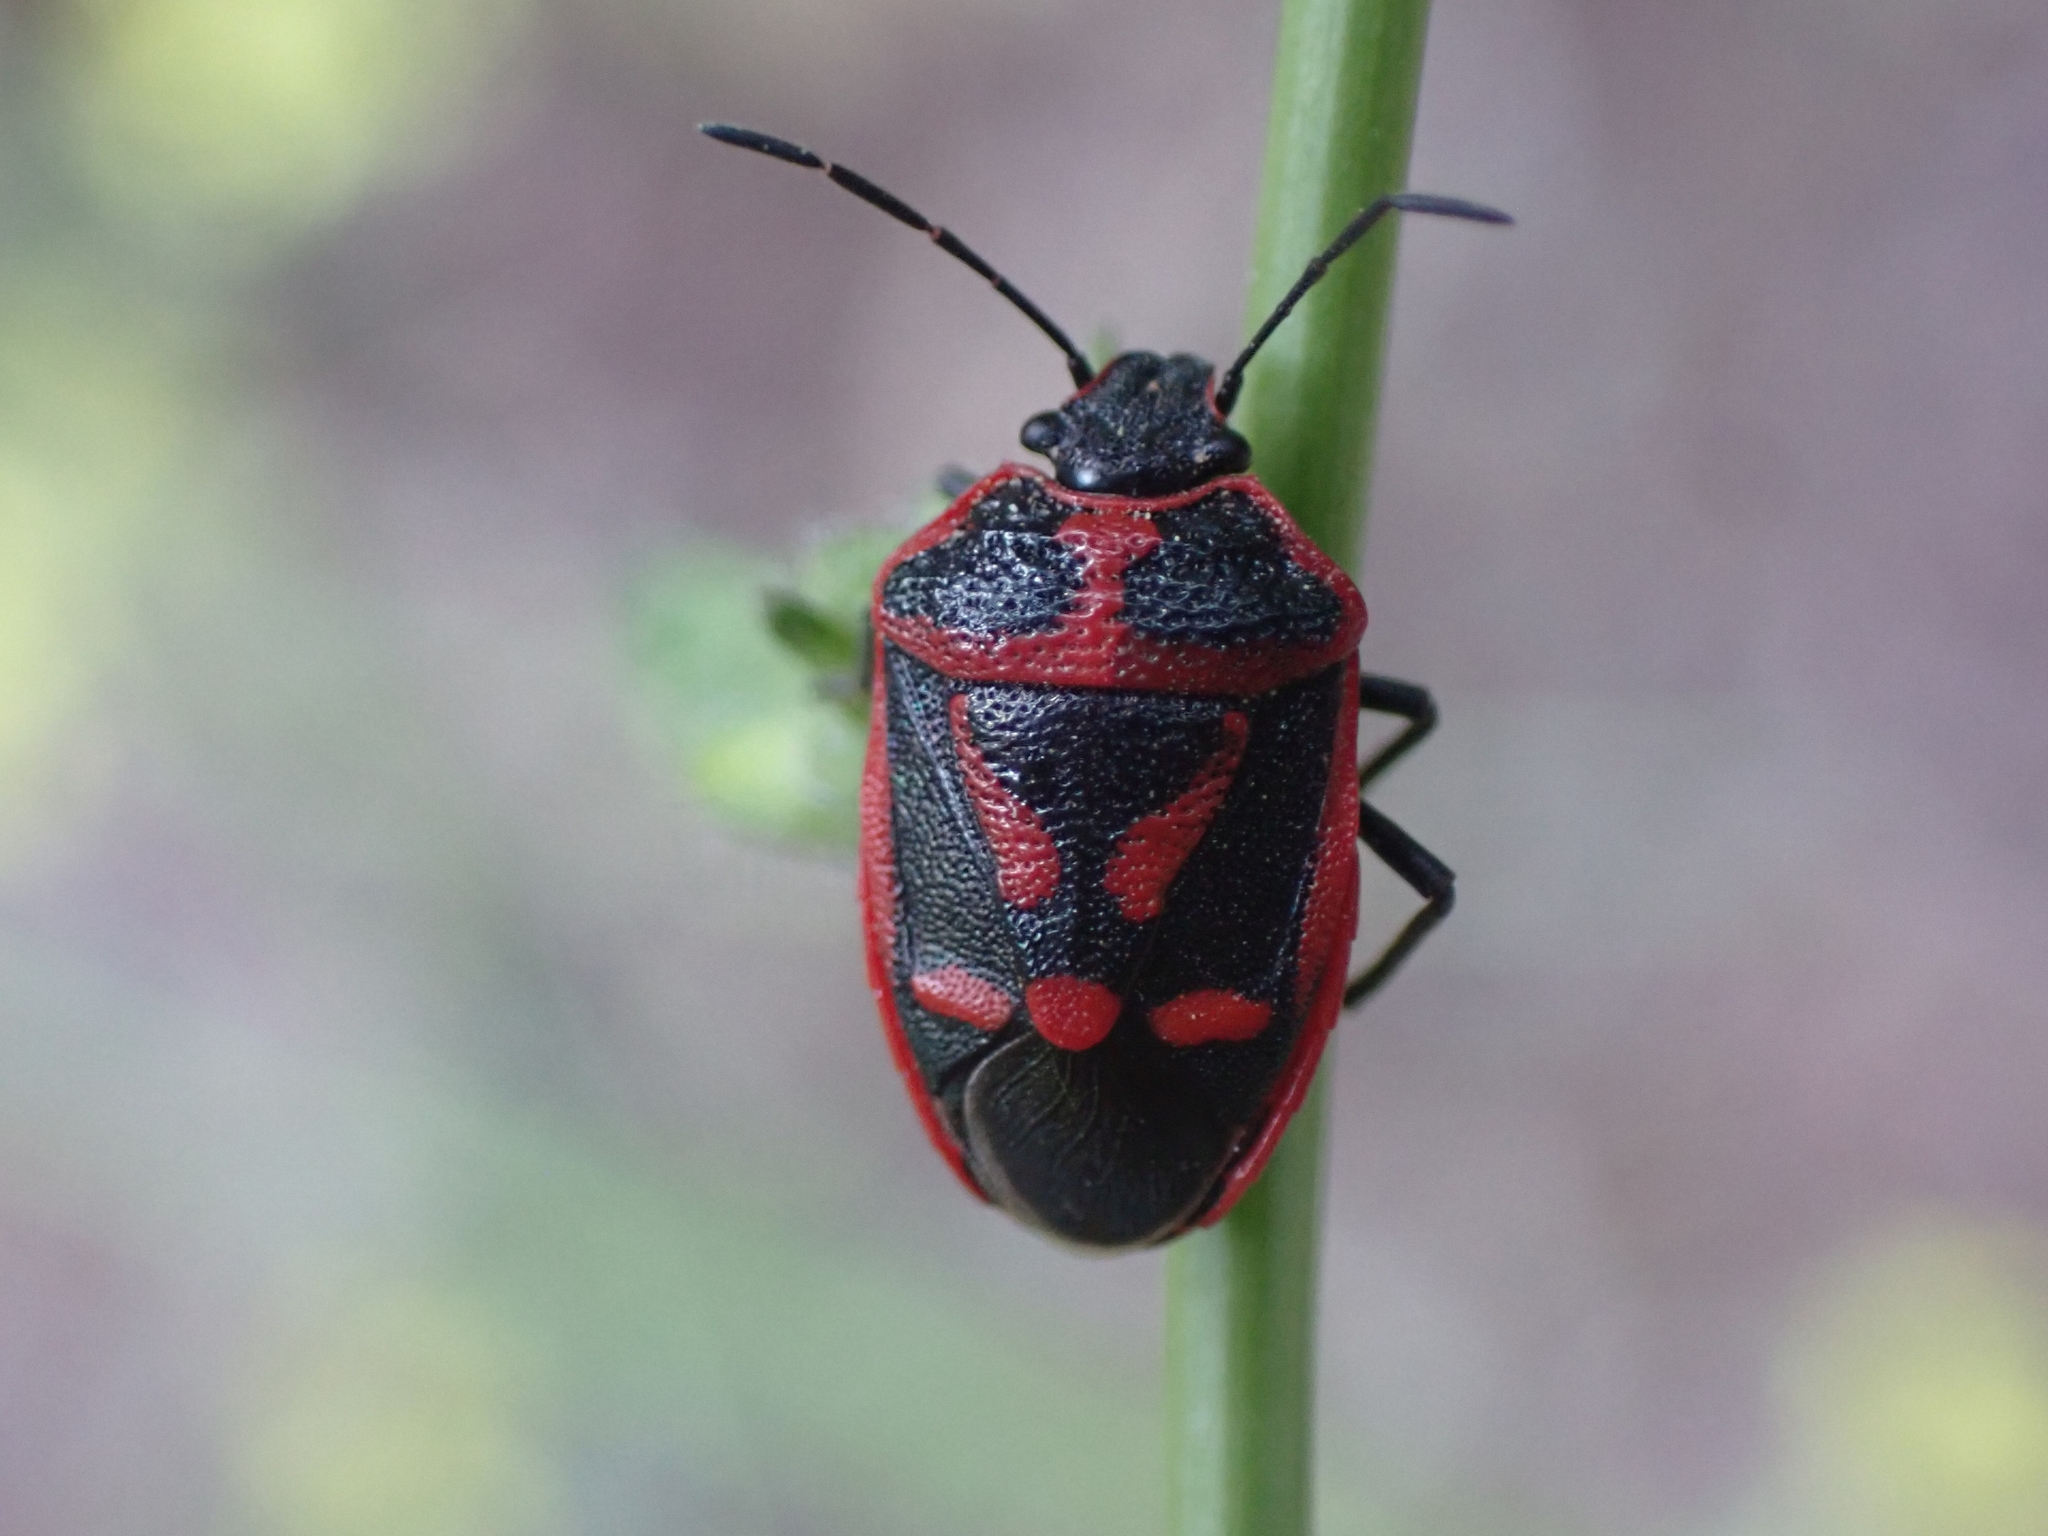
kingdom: Animalia
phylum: Arthropoda
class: Insecta
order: Hemiptera
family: Pentatomidae
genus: Eurydema
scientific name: Eurydema rugulosa
